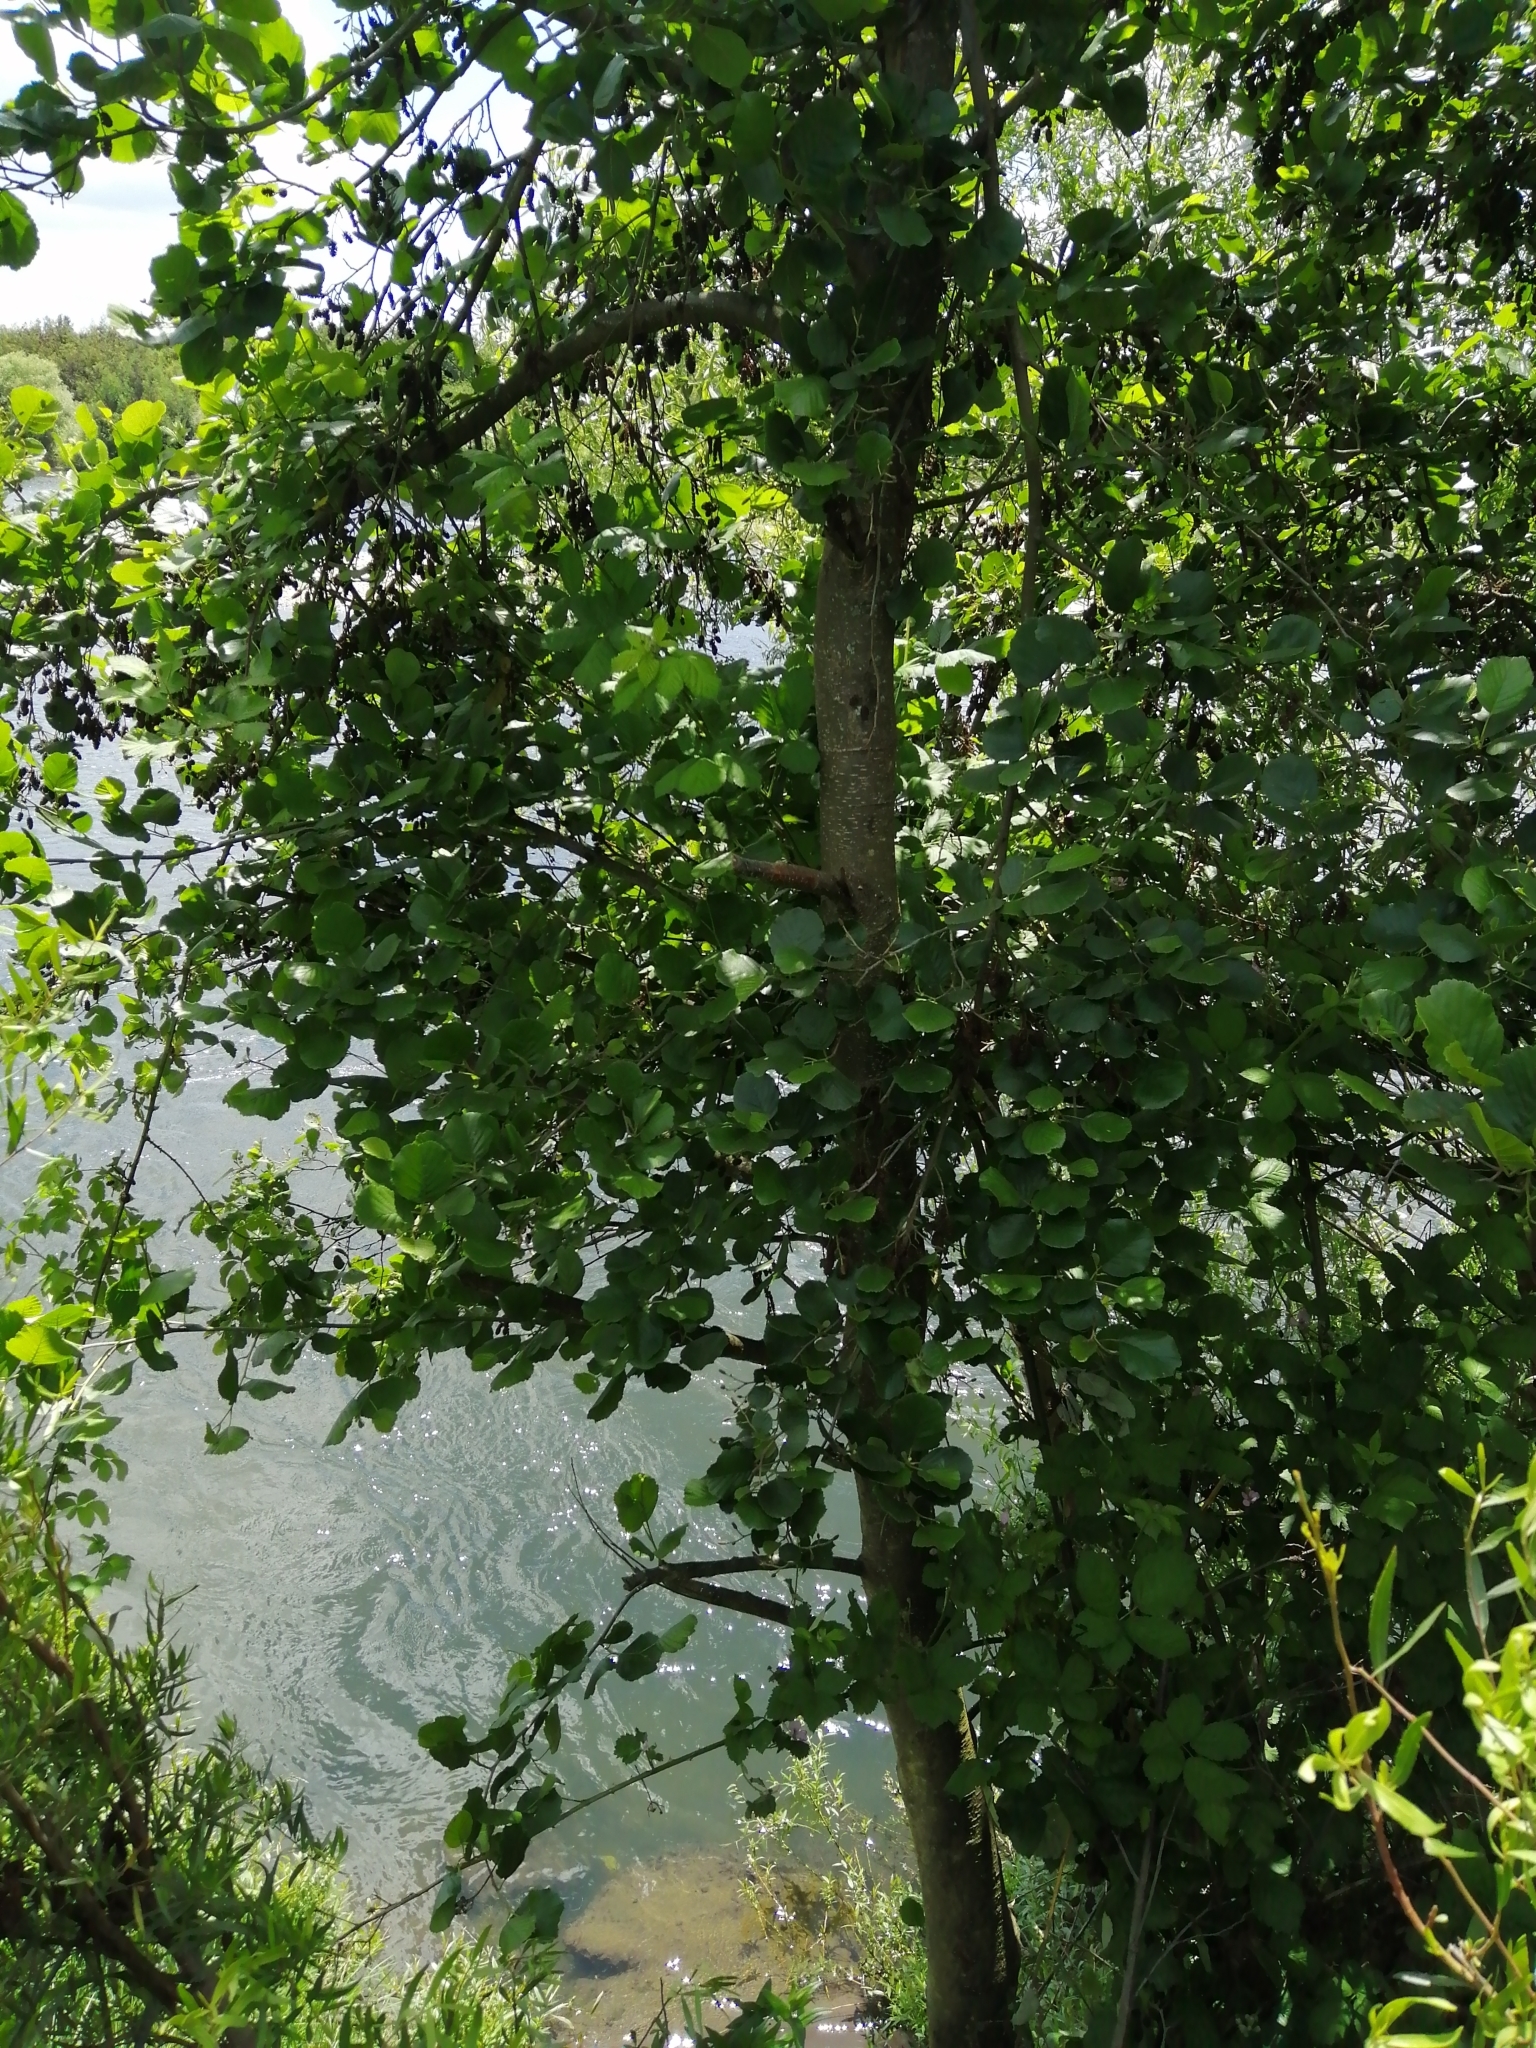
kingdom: Plantae
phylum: Tracheophyta
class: Magnoliopsida
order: Fagales
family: Betulaceae
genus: Alnus
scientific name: Alnus glutinosa
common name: Black alder
